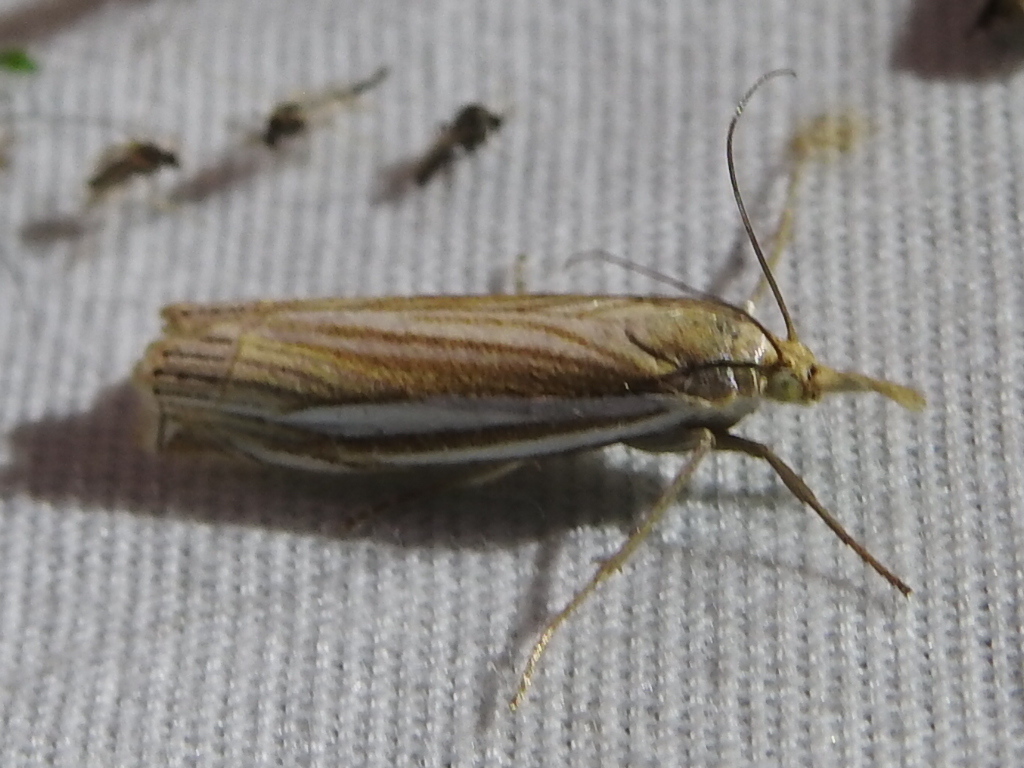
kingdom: Animalia
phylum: Arthropoda
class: Insecta
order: Lepidoptera
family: Crambidae
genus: Crambus
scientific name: Crambus laqueatellus
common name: Eastern grass-veneer
